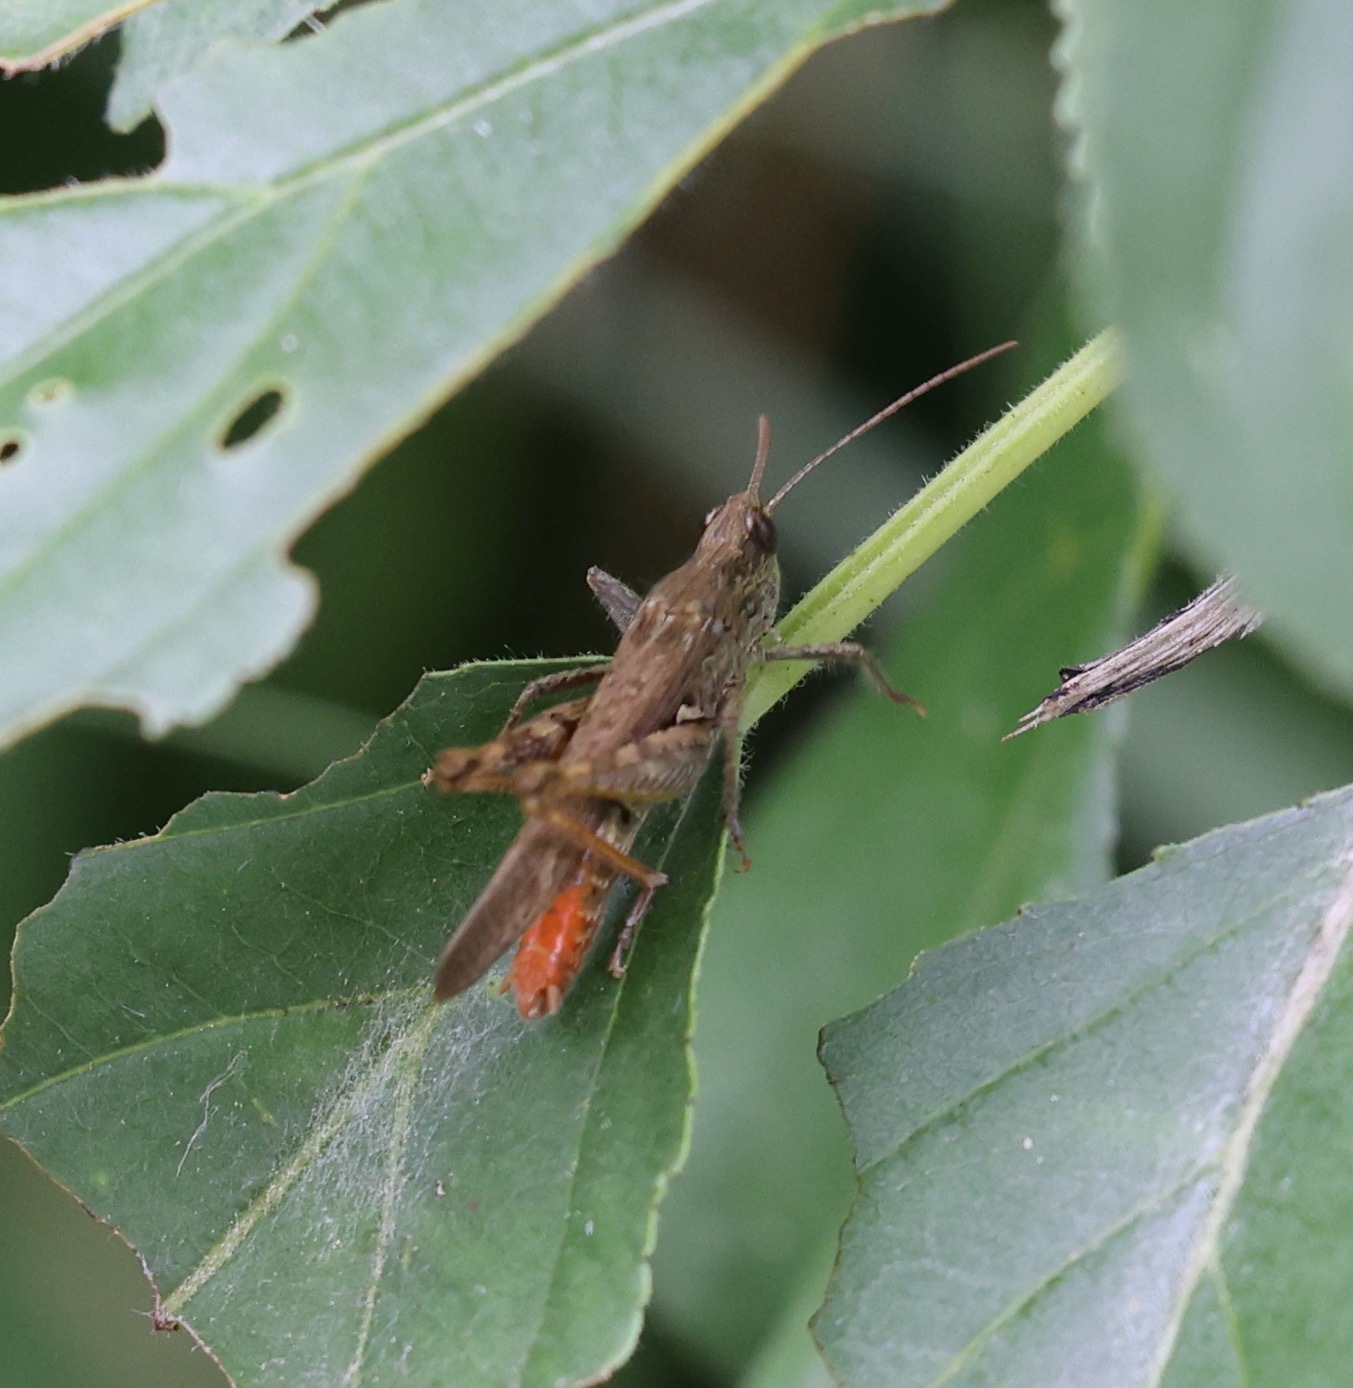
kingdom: Animalia
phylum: Arthropoda
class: Insecta
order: Orthoptera
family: Acrididae
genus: Chorthippus
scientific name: Chorthippus brunneus
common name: Field grasshopper
